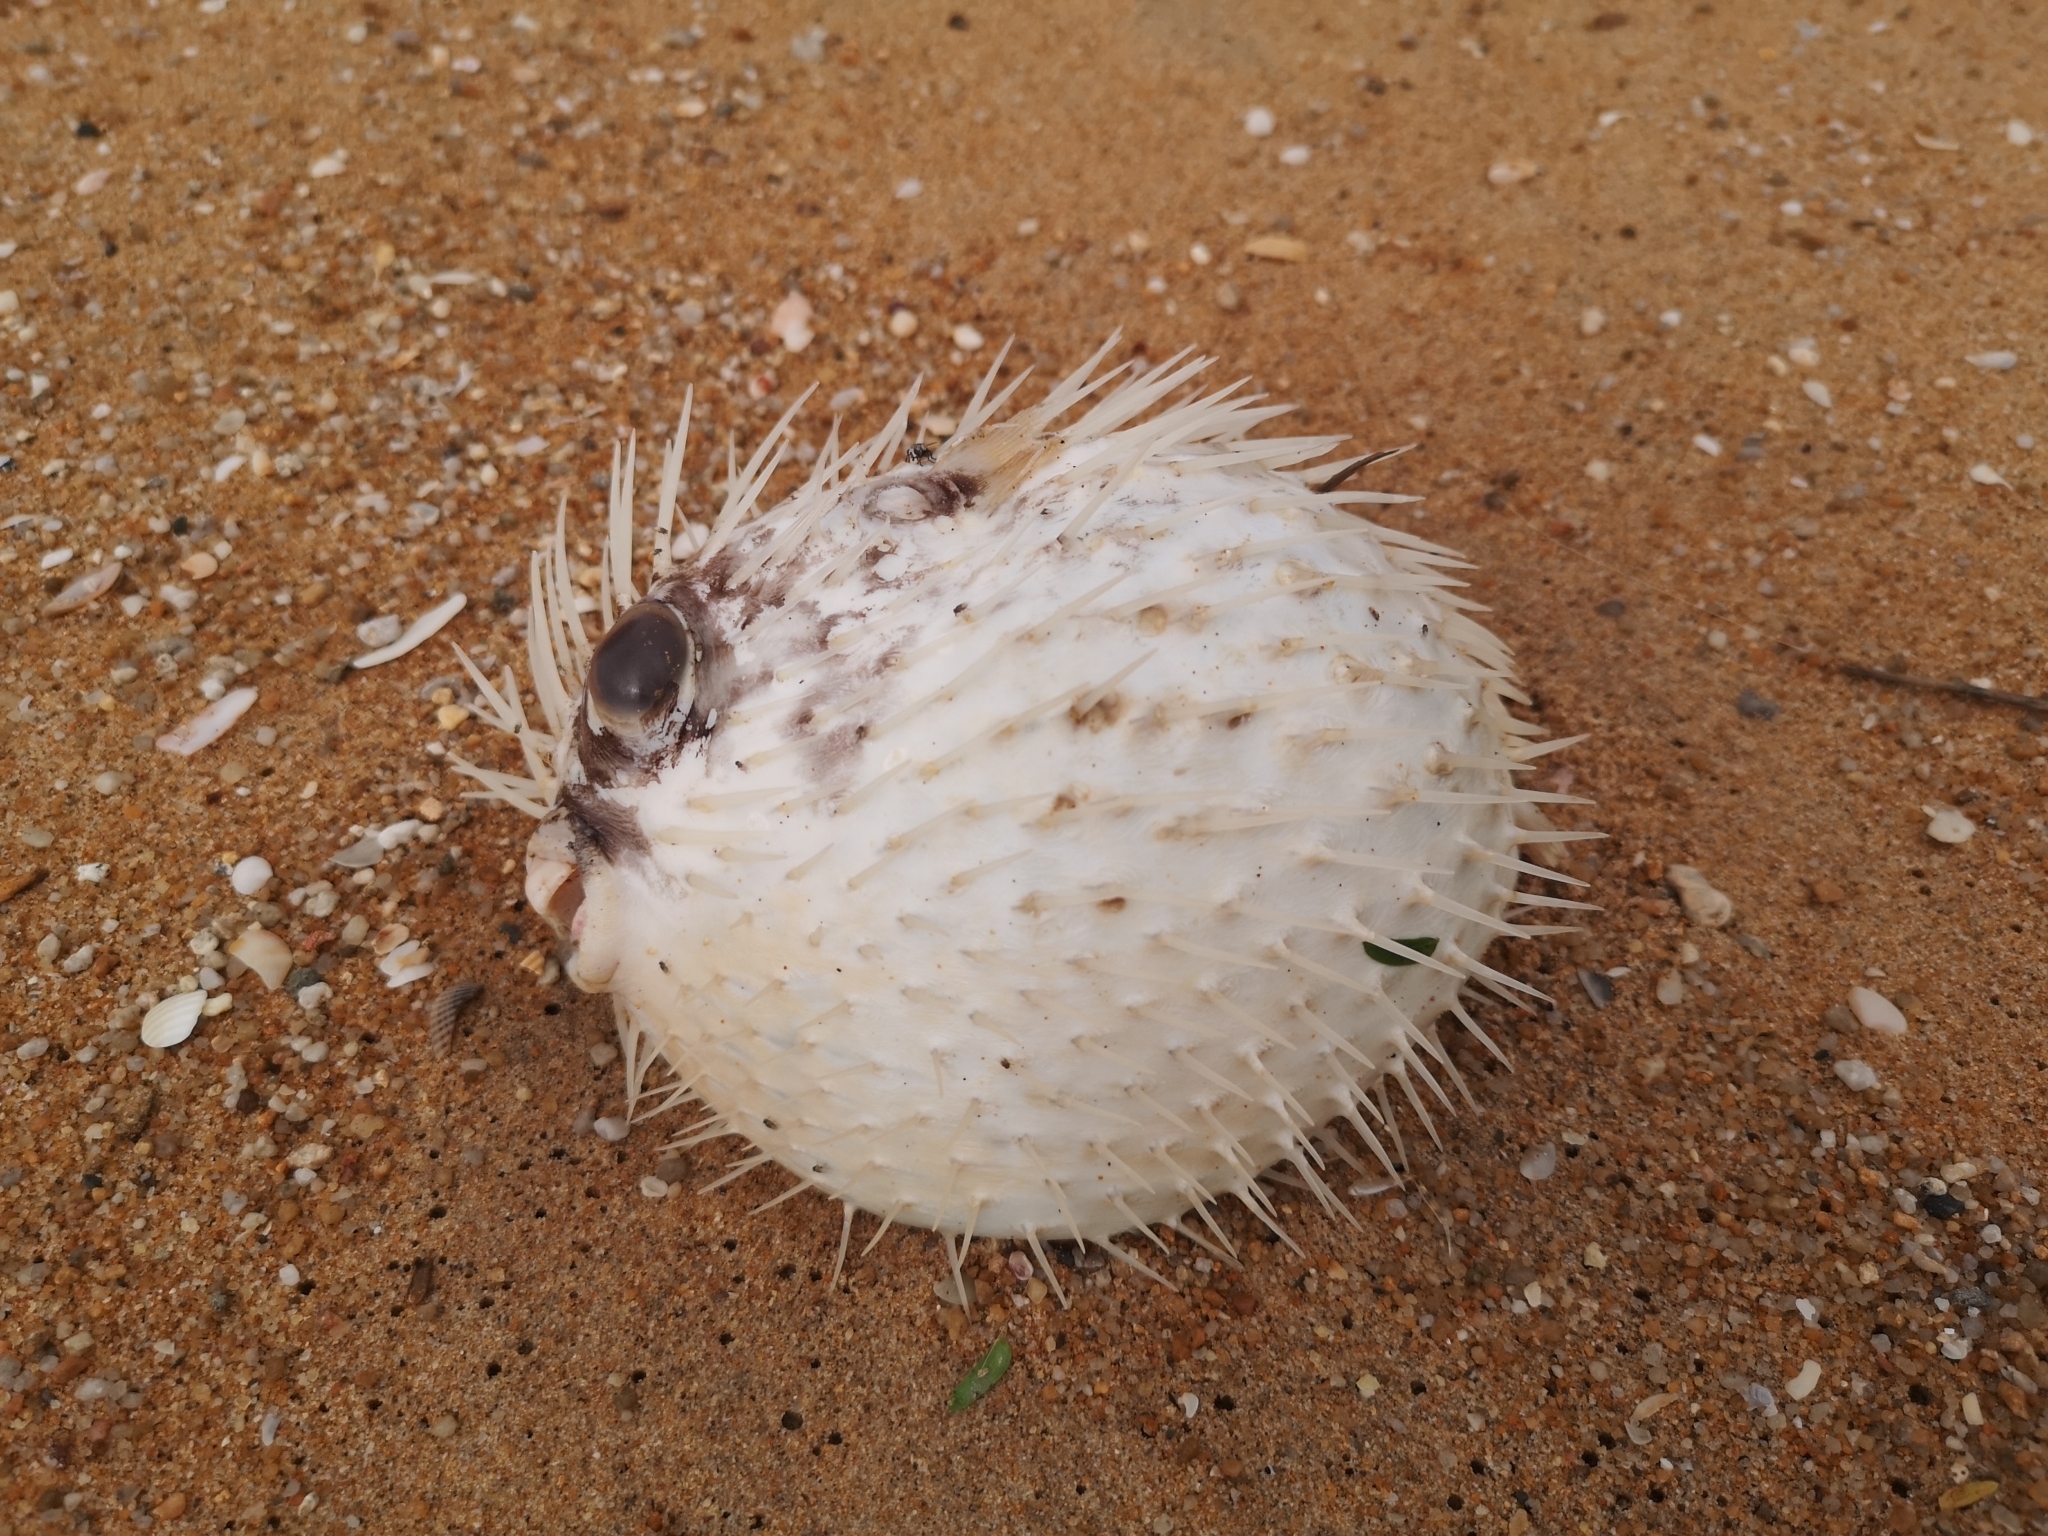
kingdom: Animalia
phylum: Chordata
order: Tetraodontiformes
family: Diodontidae
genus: Diodon
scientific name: Diodon holocanthus
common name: Balloonfish
